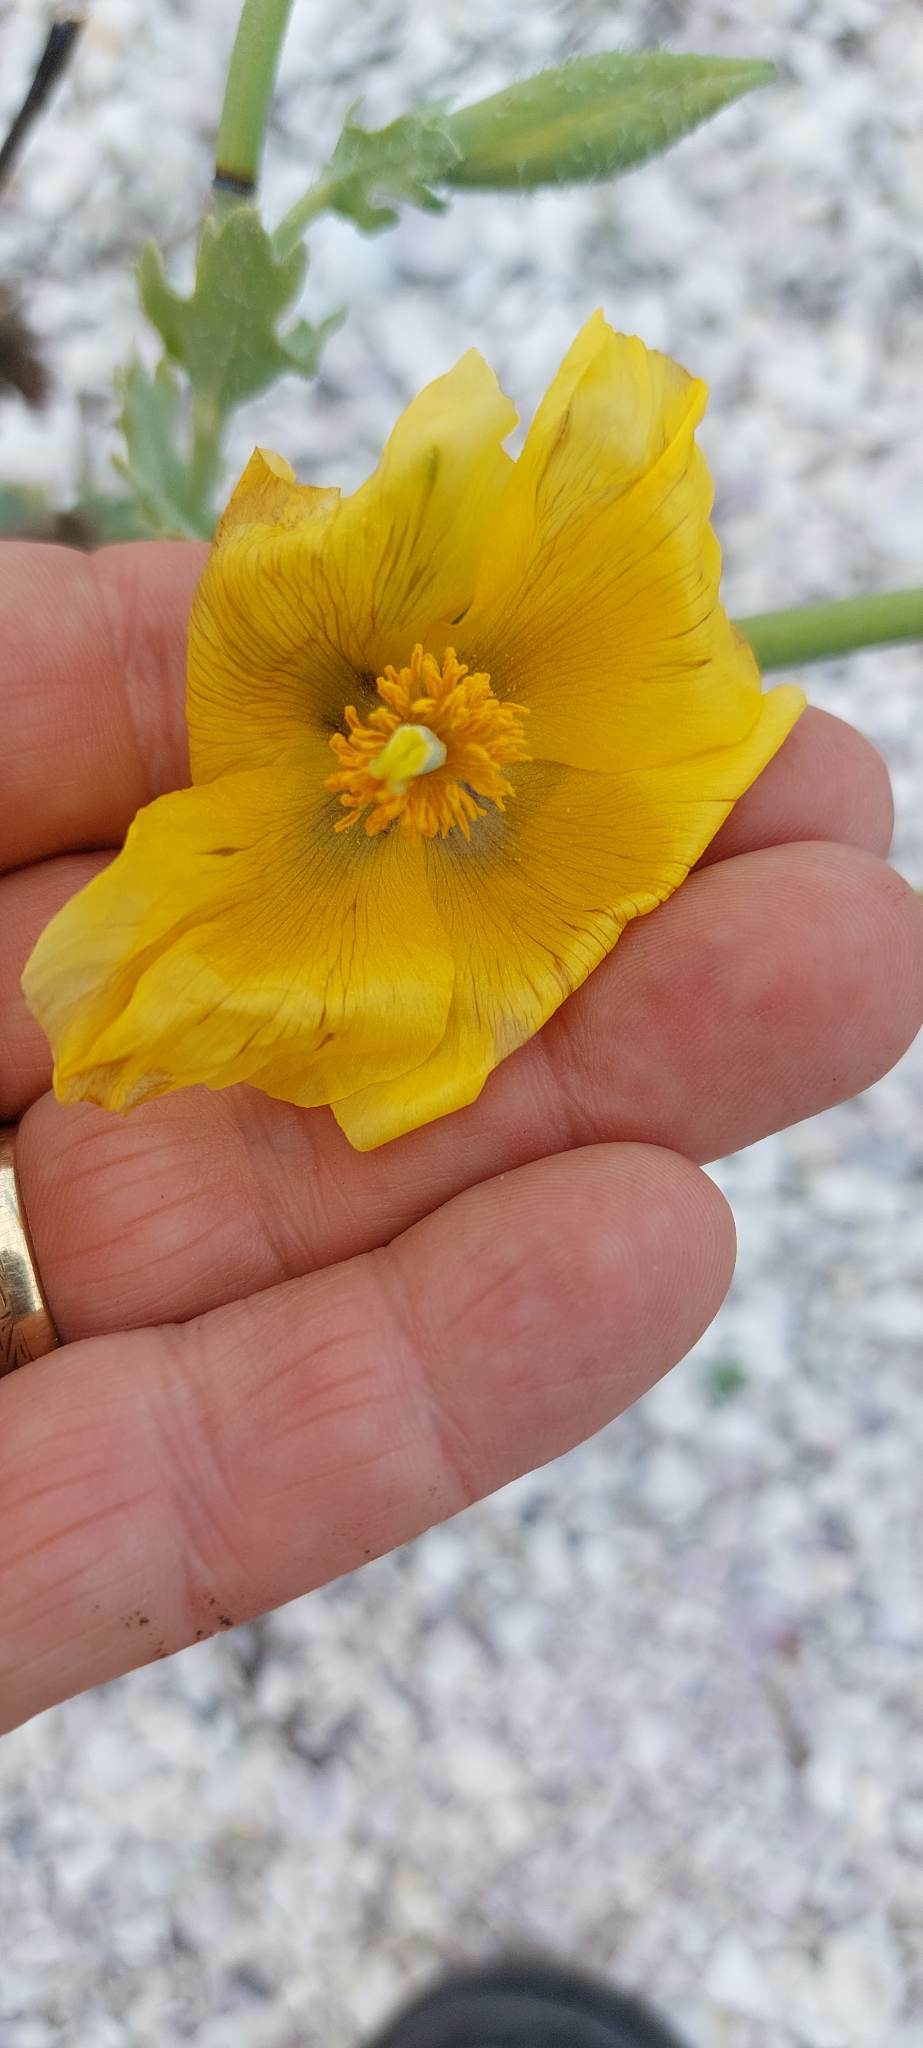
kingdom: Plantae
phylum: Tracheophyta
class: Magnoliopsida
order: Ranunculales
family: Papaveraceae
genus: Glaucium
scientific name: Glaucium flavum
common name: Yellow horned-poppy
